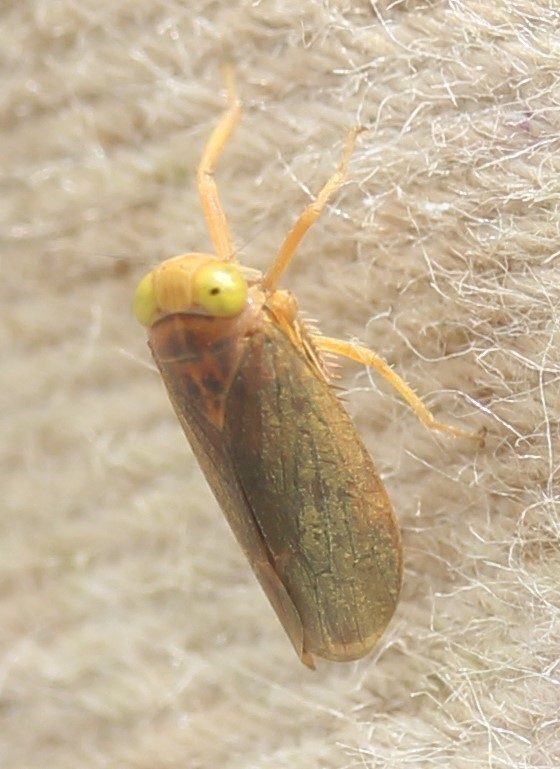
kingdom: Animalia
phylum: Arthropoda
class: Insecta
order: Hemiptera
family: Cicadellidae
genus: Jikradia
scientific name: Jikradia olitoria
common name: Coppery leafhopper
